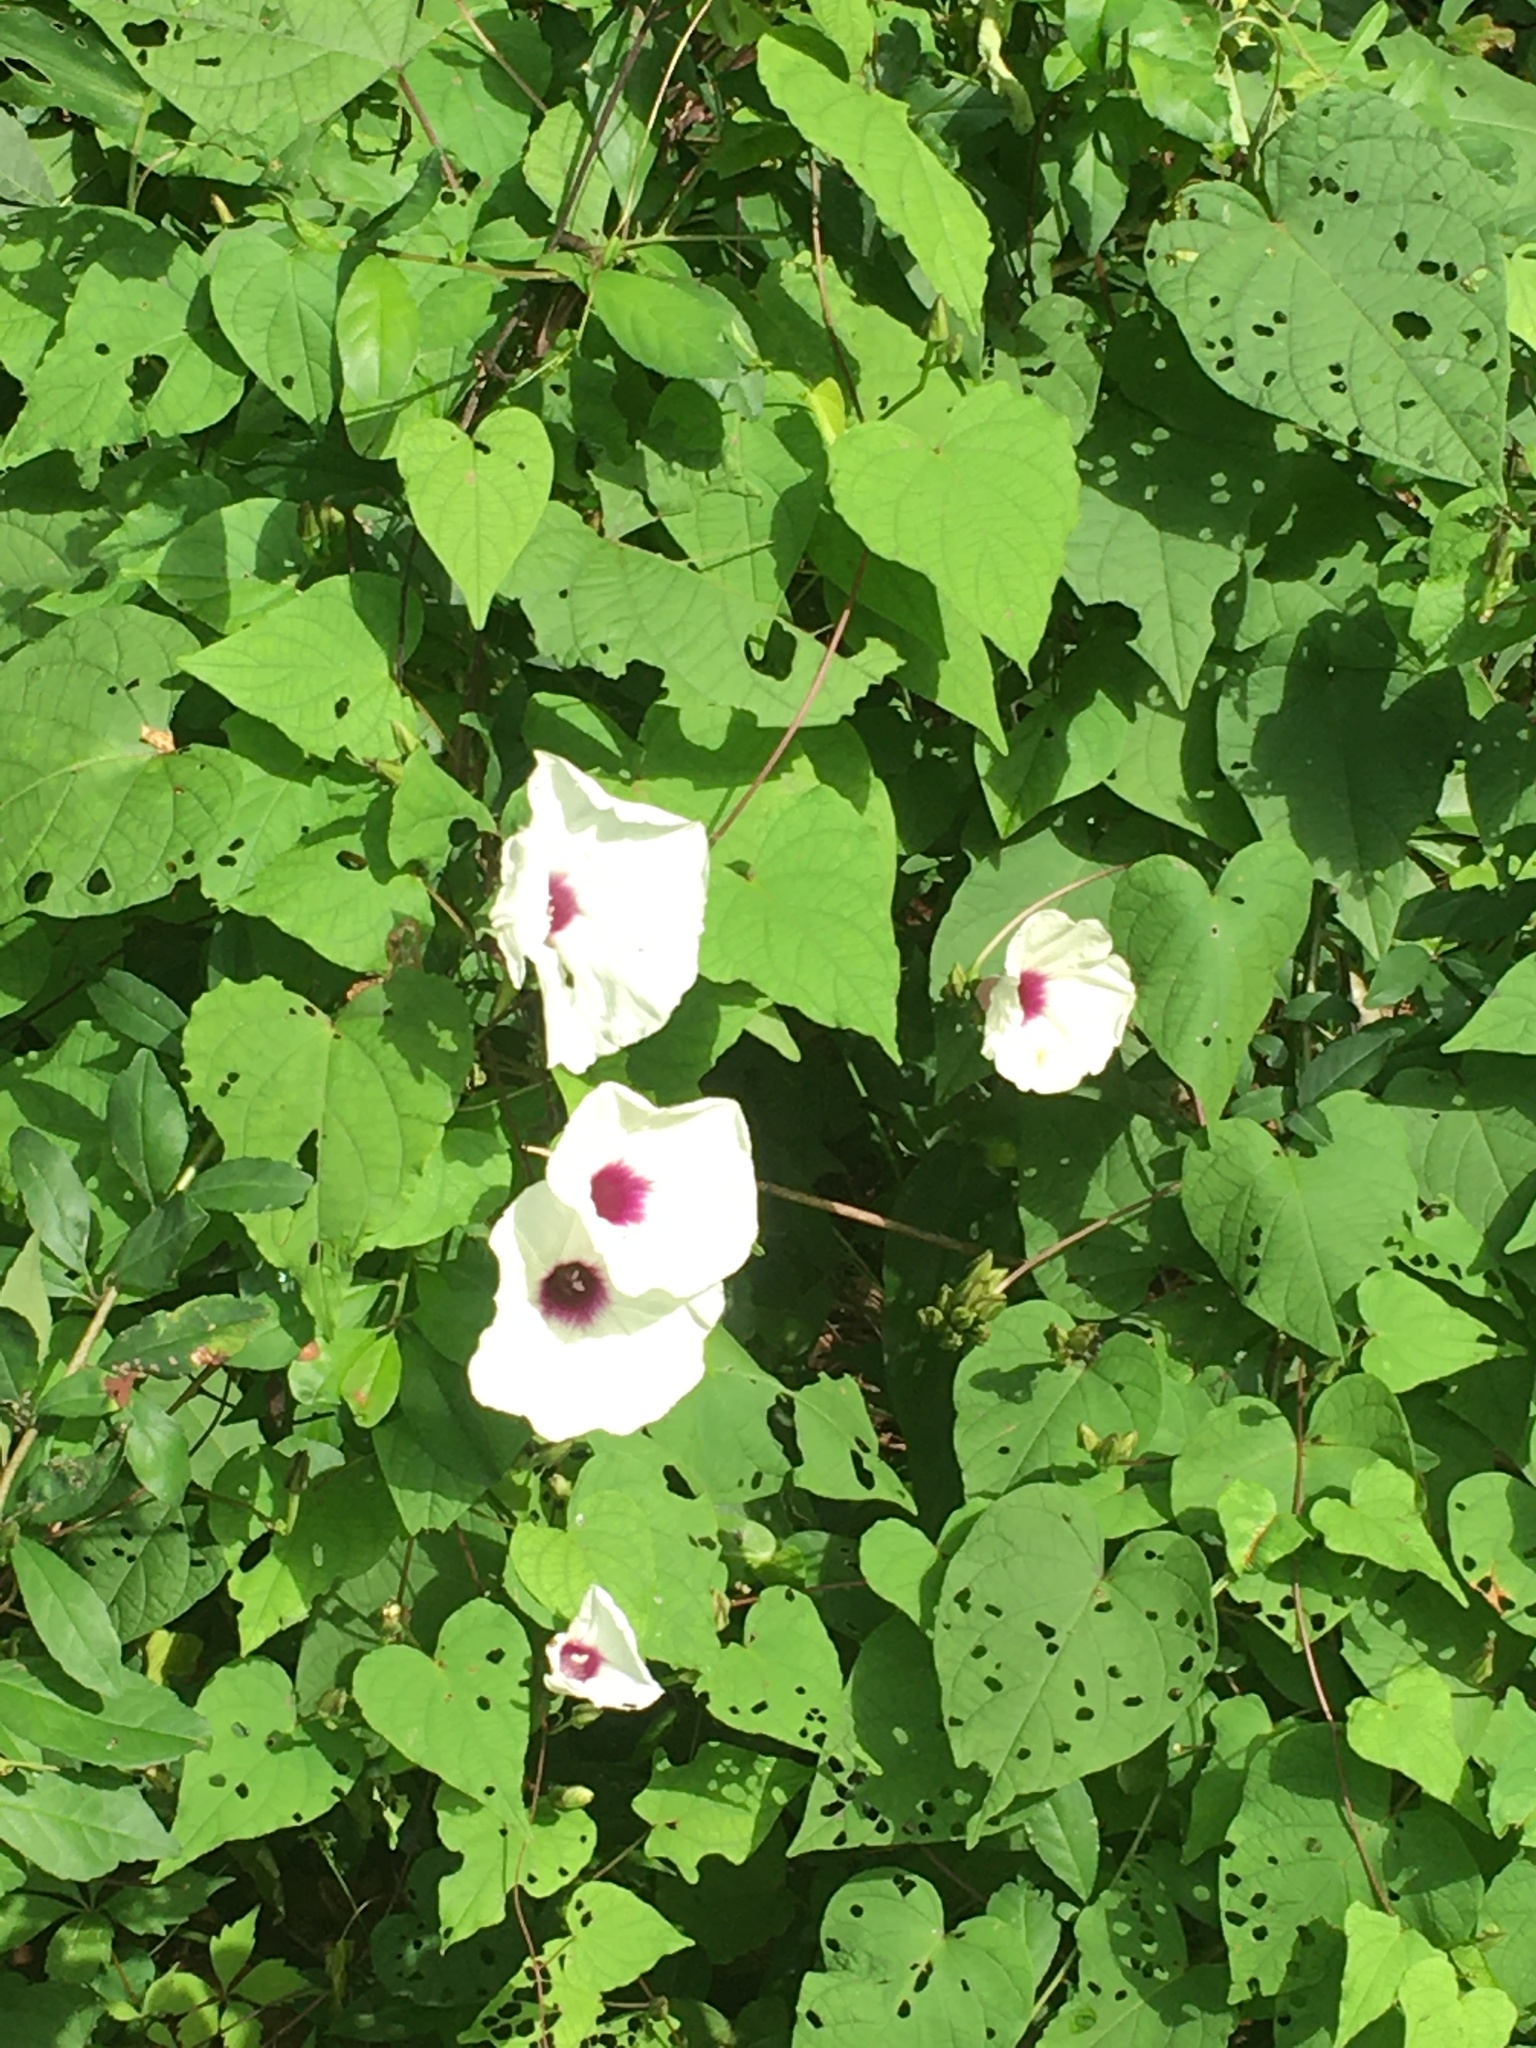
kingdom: Plantae
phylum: Tracheophyta
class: Magnoliopsida
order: Solanales
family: Convolvulaceae
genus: Ipomoea
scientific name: Ipomoea pandurata
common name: Man-of-the-earth
